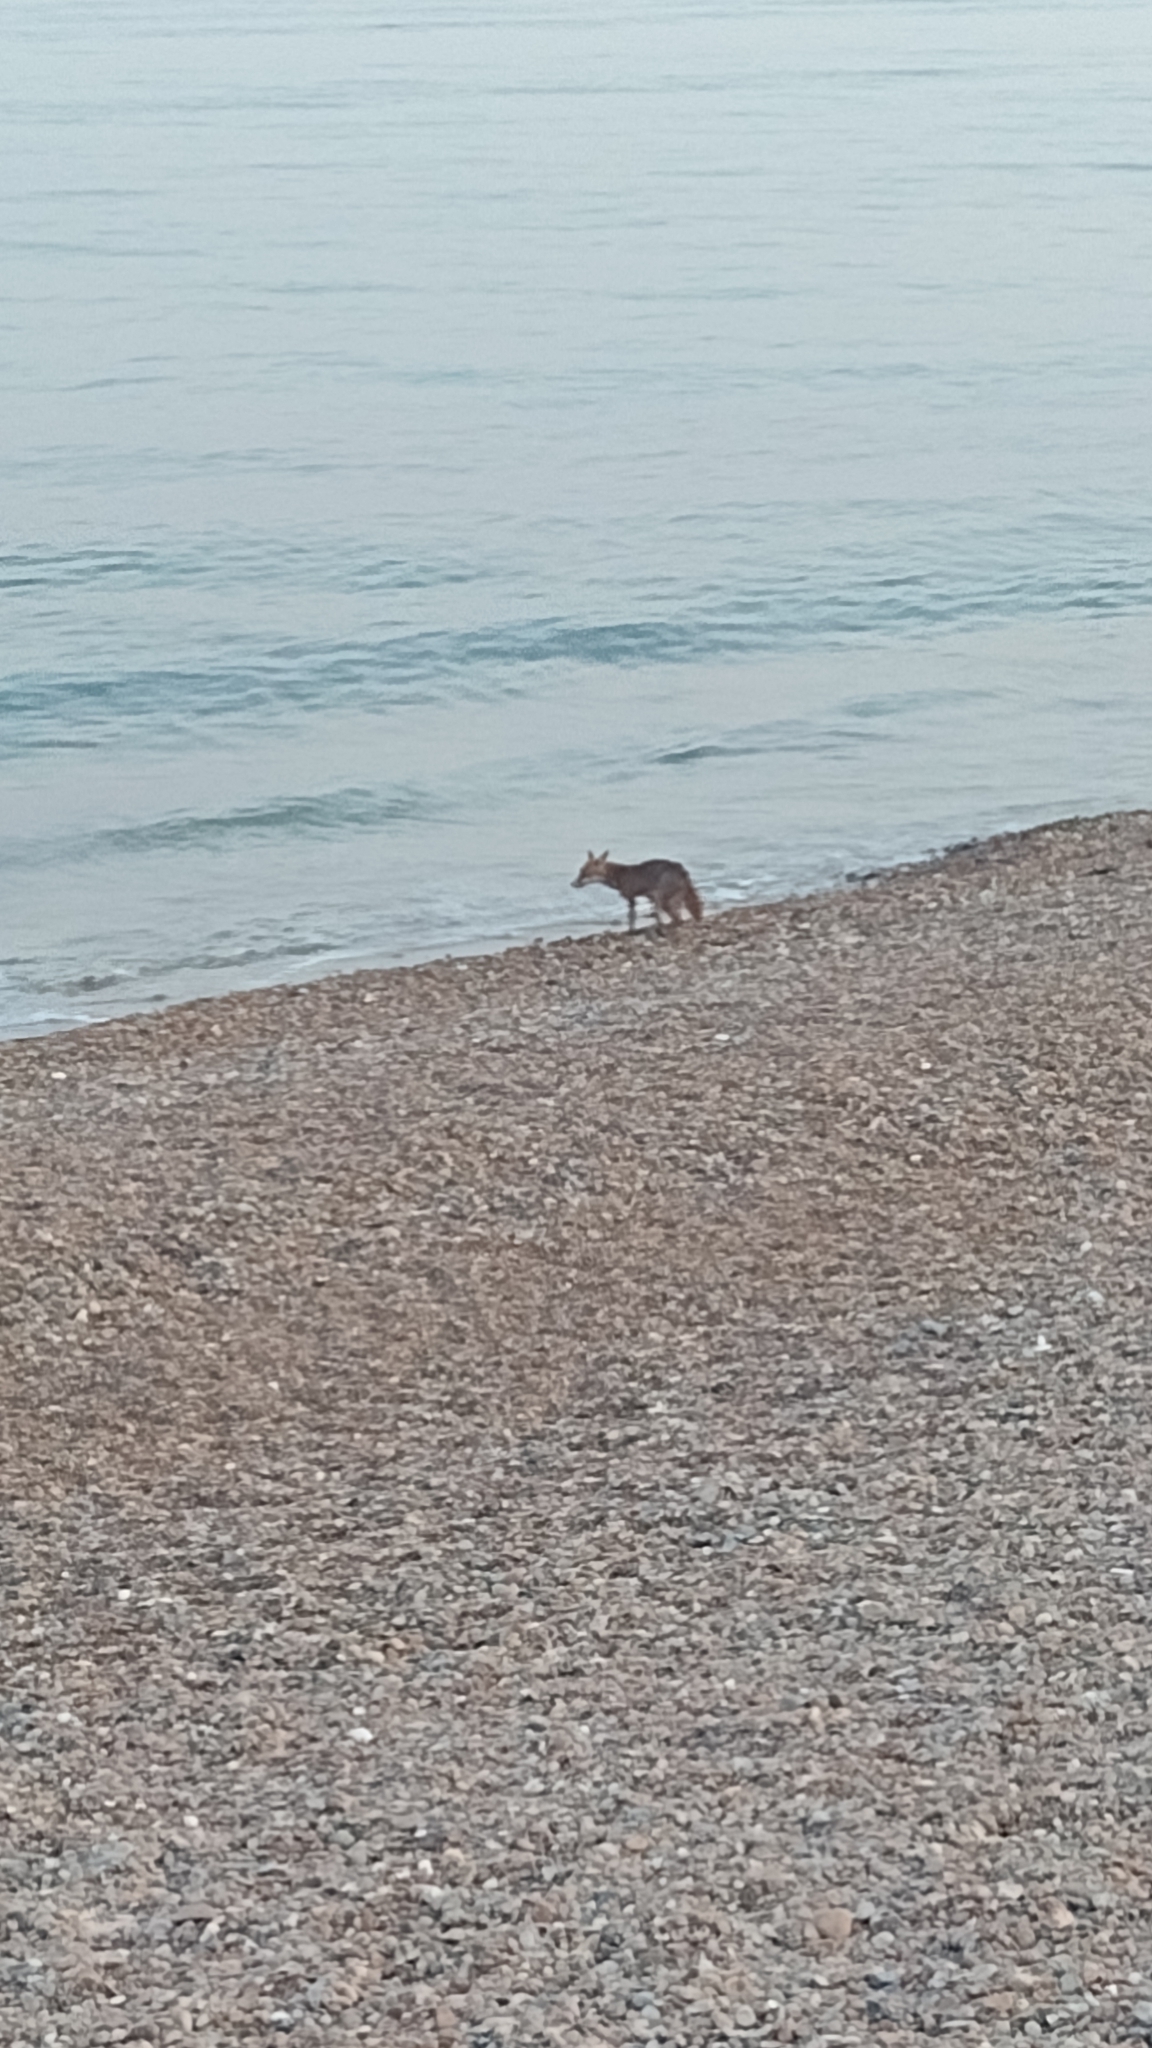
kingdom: Animalia
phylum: Chordata
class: Mammalia
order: Carnivora
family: Canidae
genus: Vulpes
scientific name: Vulpes vulpes
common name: Red fox
